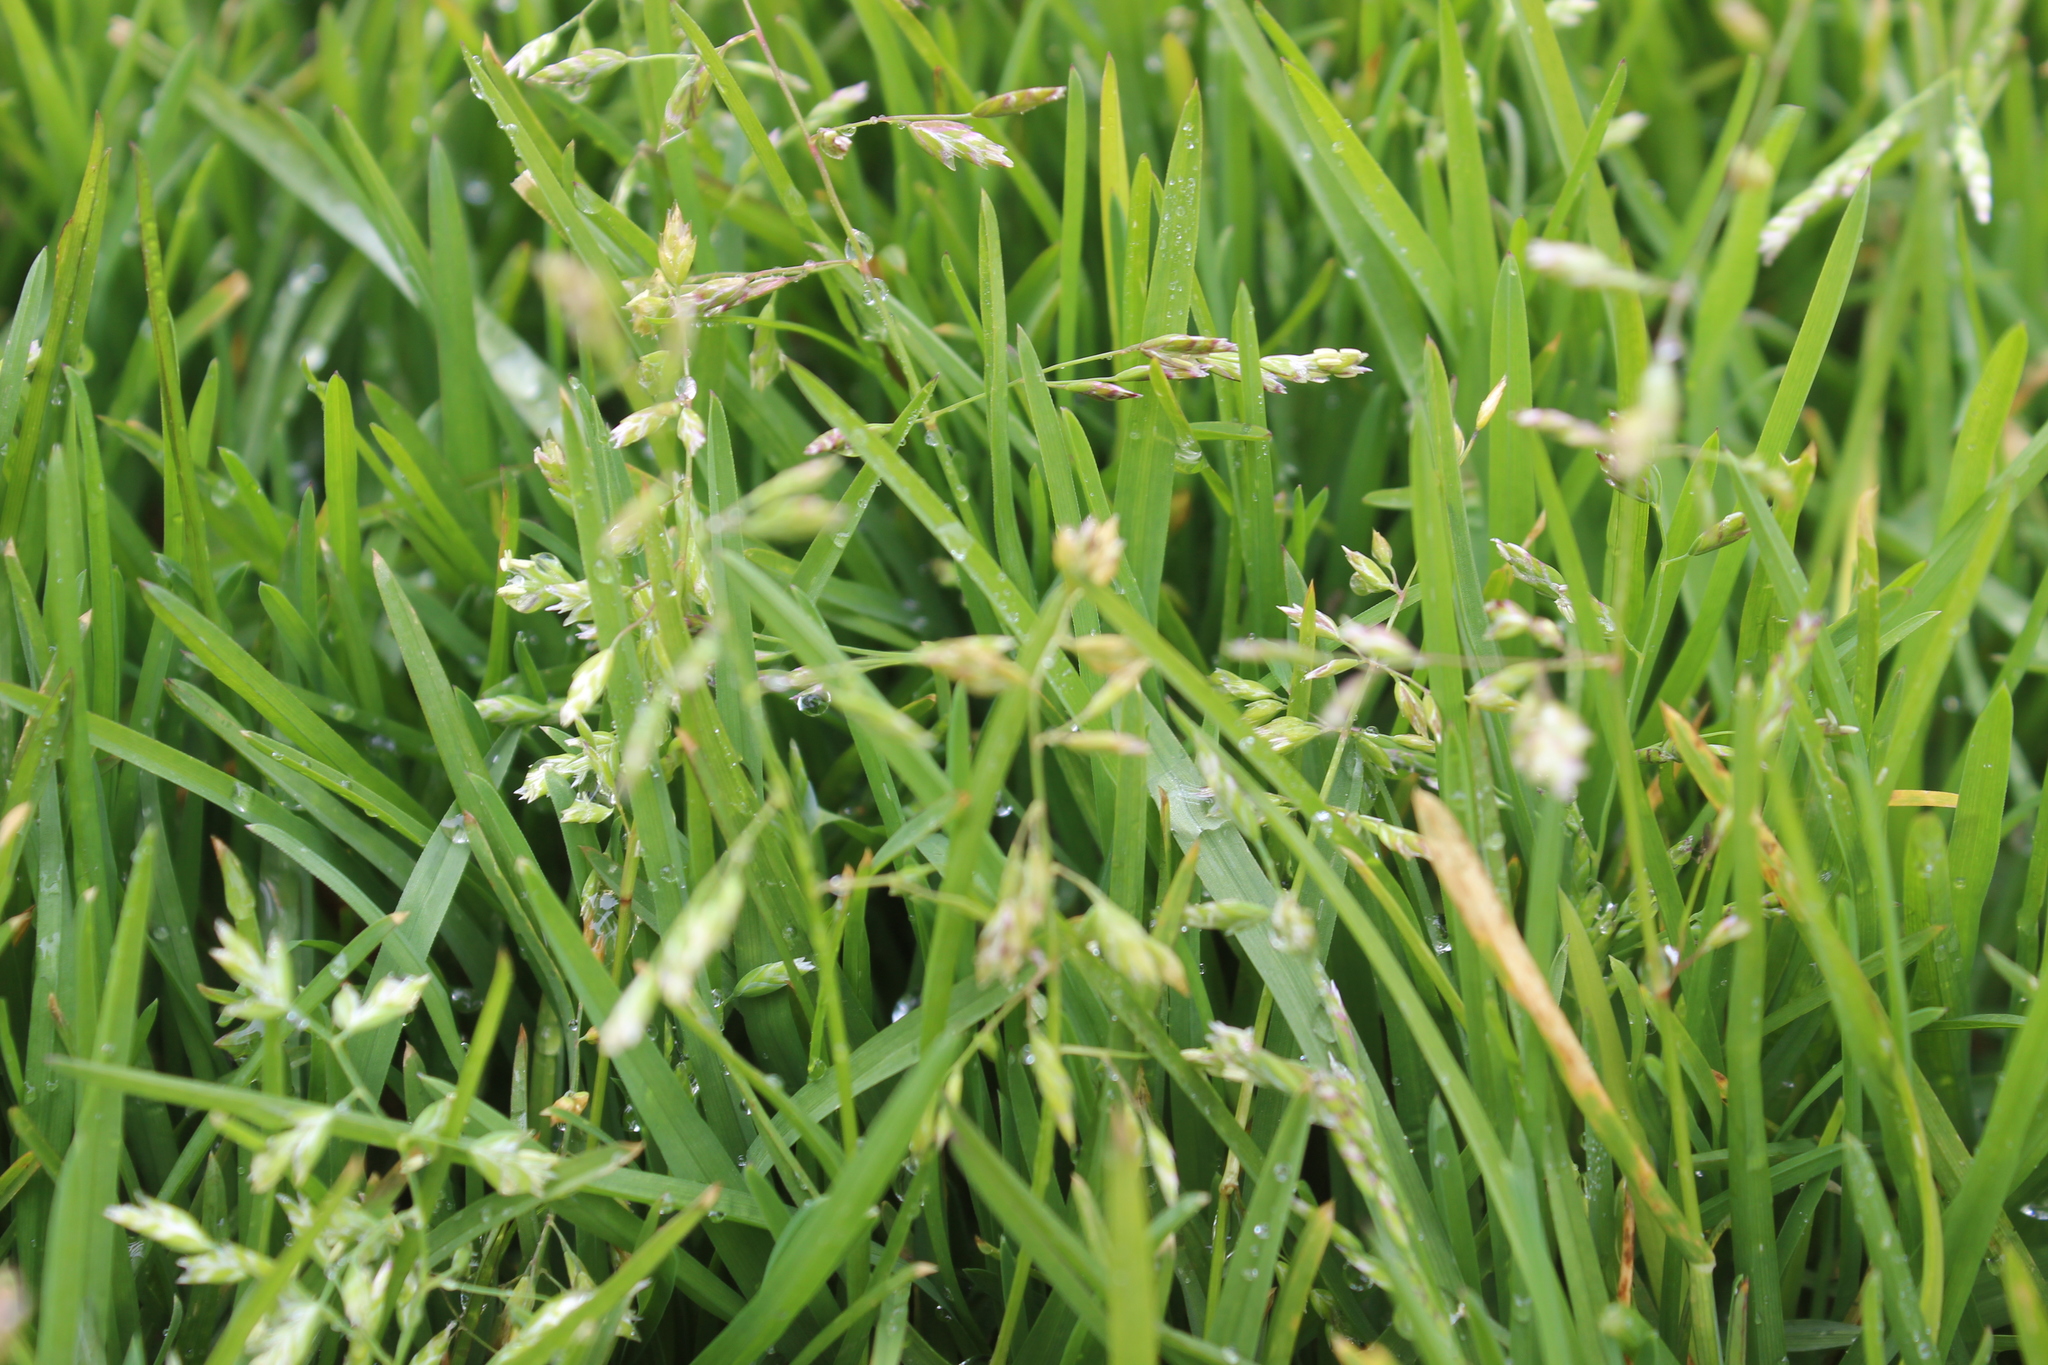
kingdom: Plantae
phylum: Tracheophyta
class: Liliopsida
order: Poales
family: Poaceae
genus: Poa
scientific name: Poa annua
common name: Annual bluegrass
